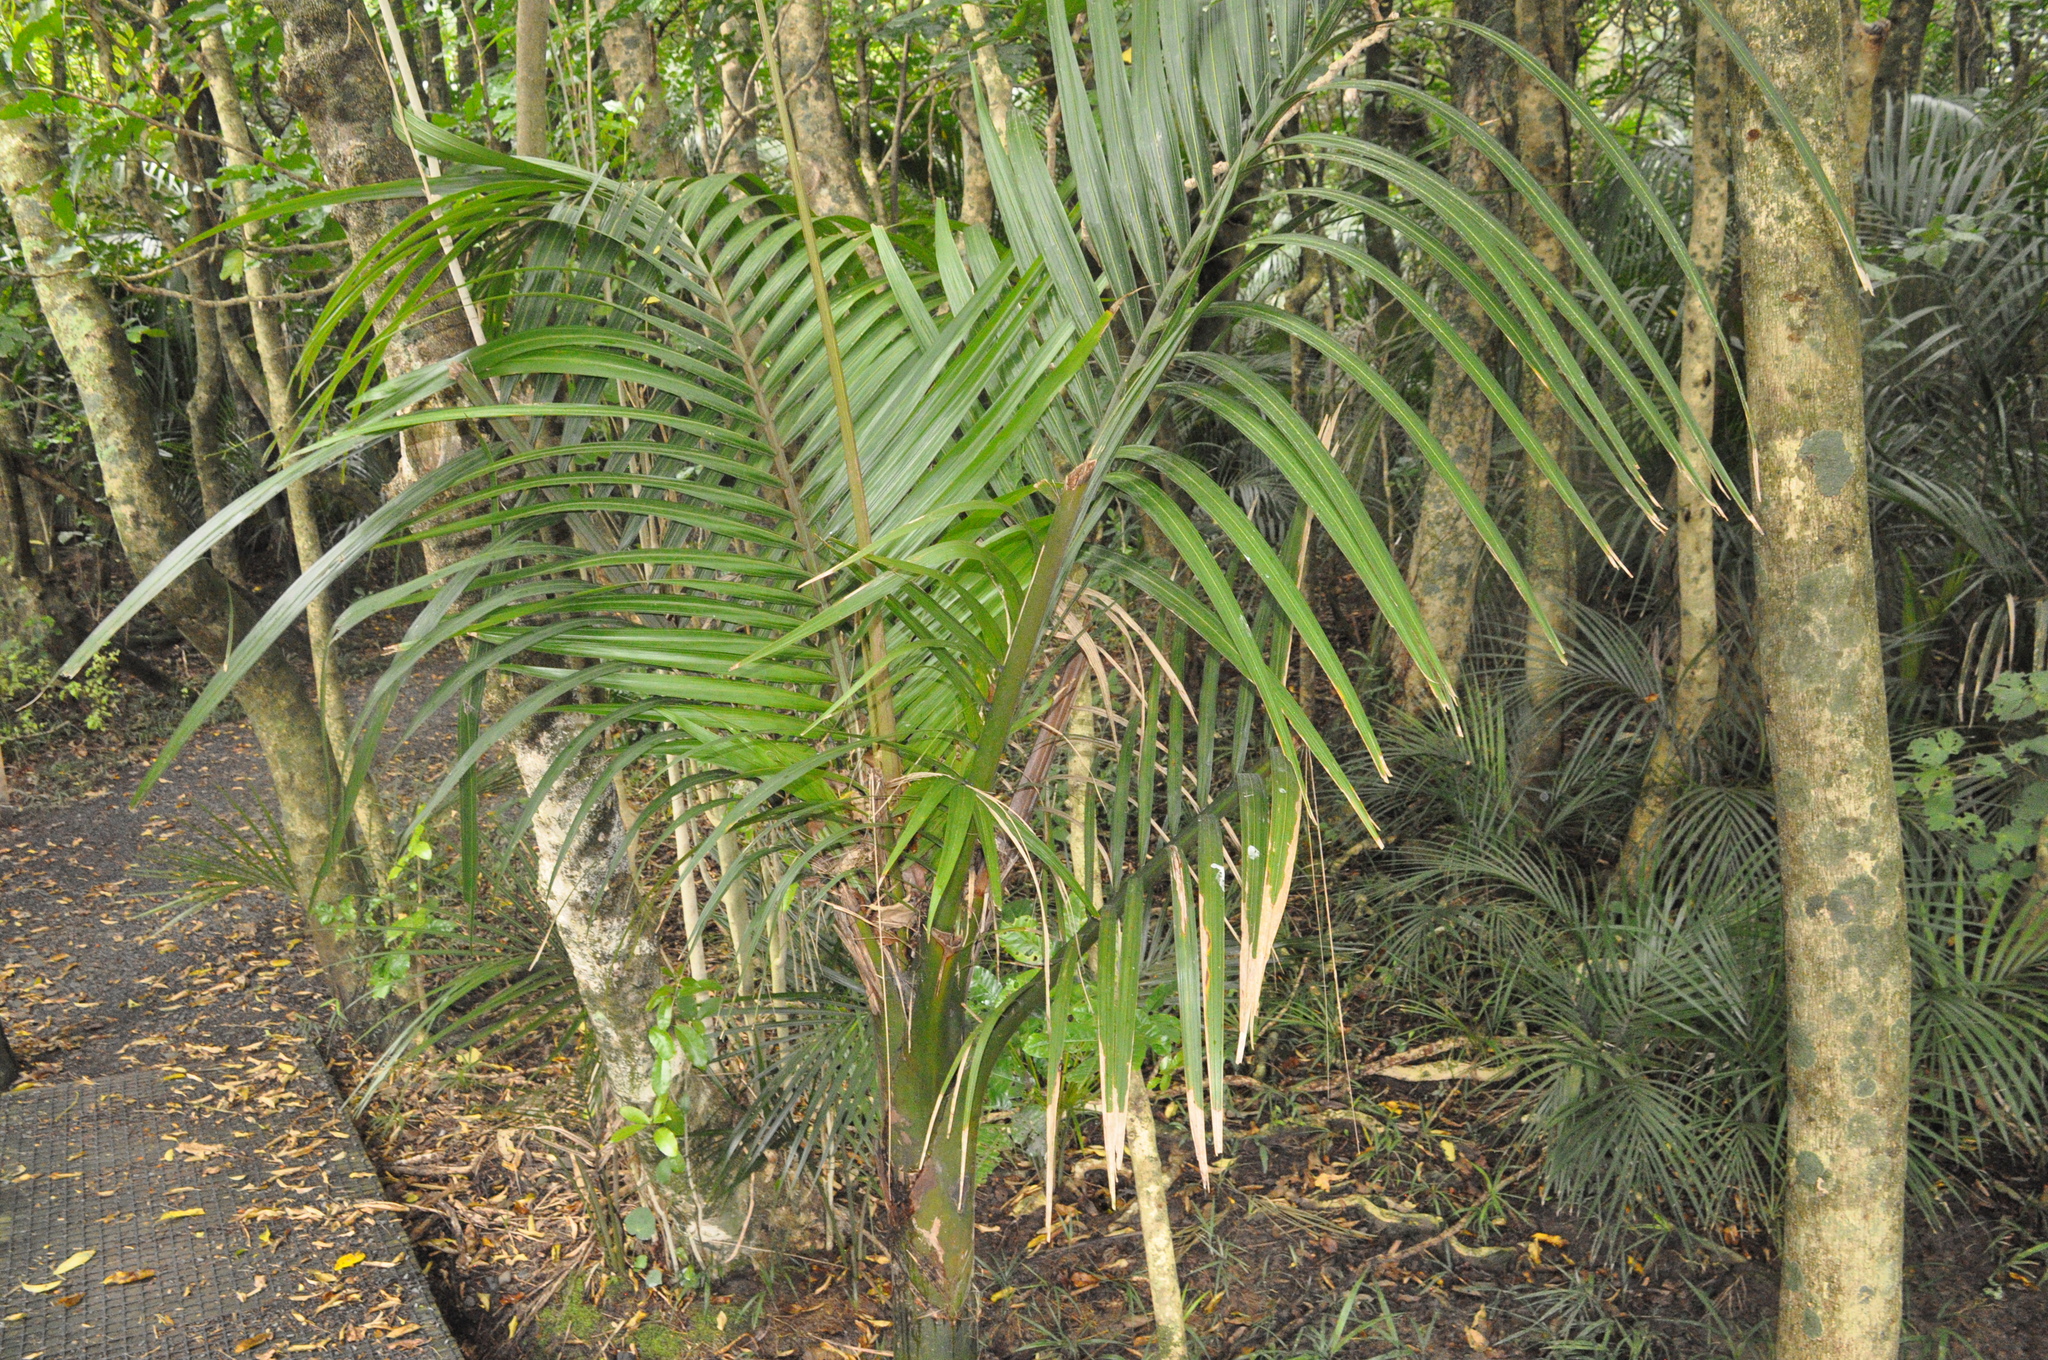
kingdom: Plantae
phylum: Tracheophyta
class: Liliopsida
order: Arecales
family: Arecaceae
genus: Rhopalostylis
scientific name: Rhopalostylis sapida
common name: Feather-duster palm
